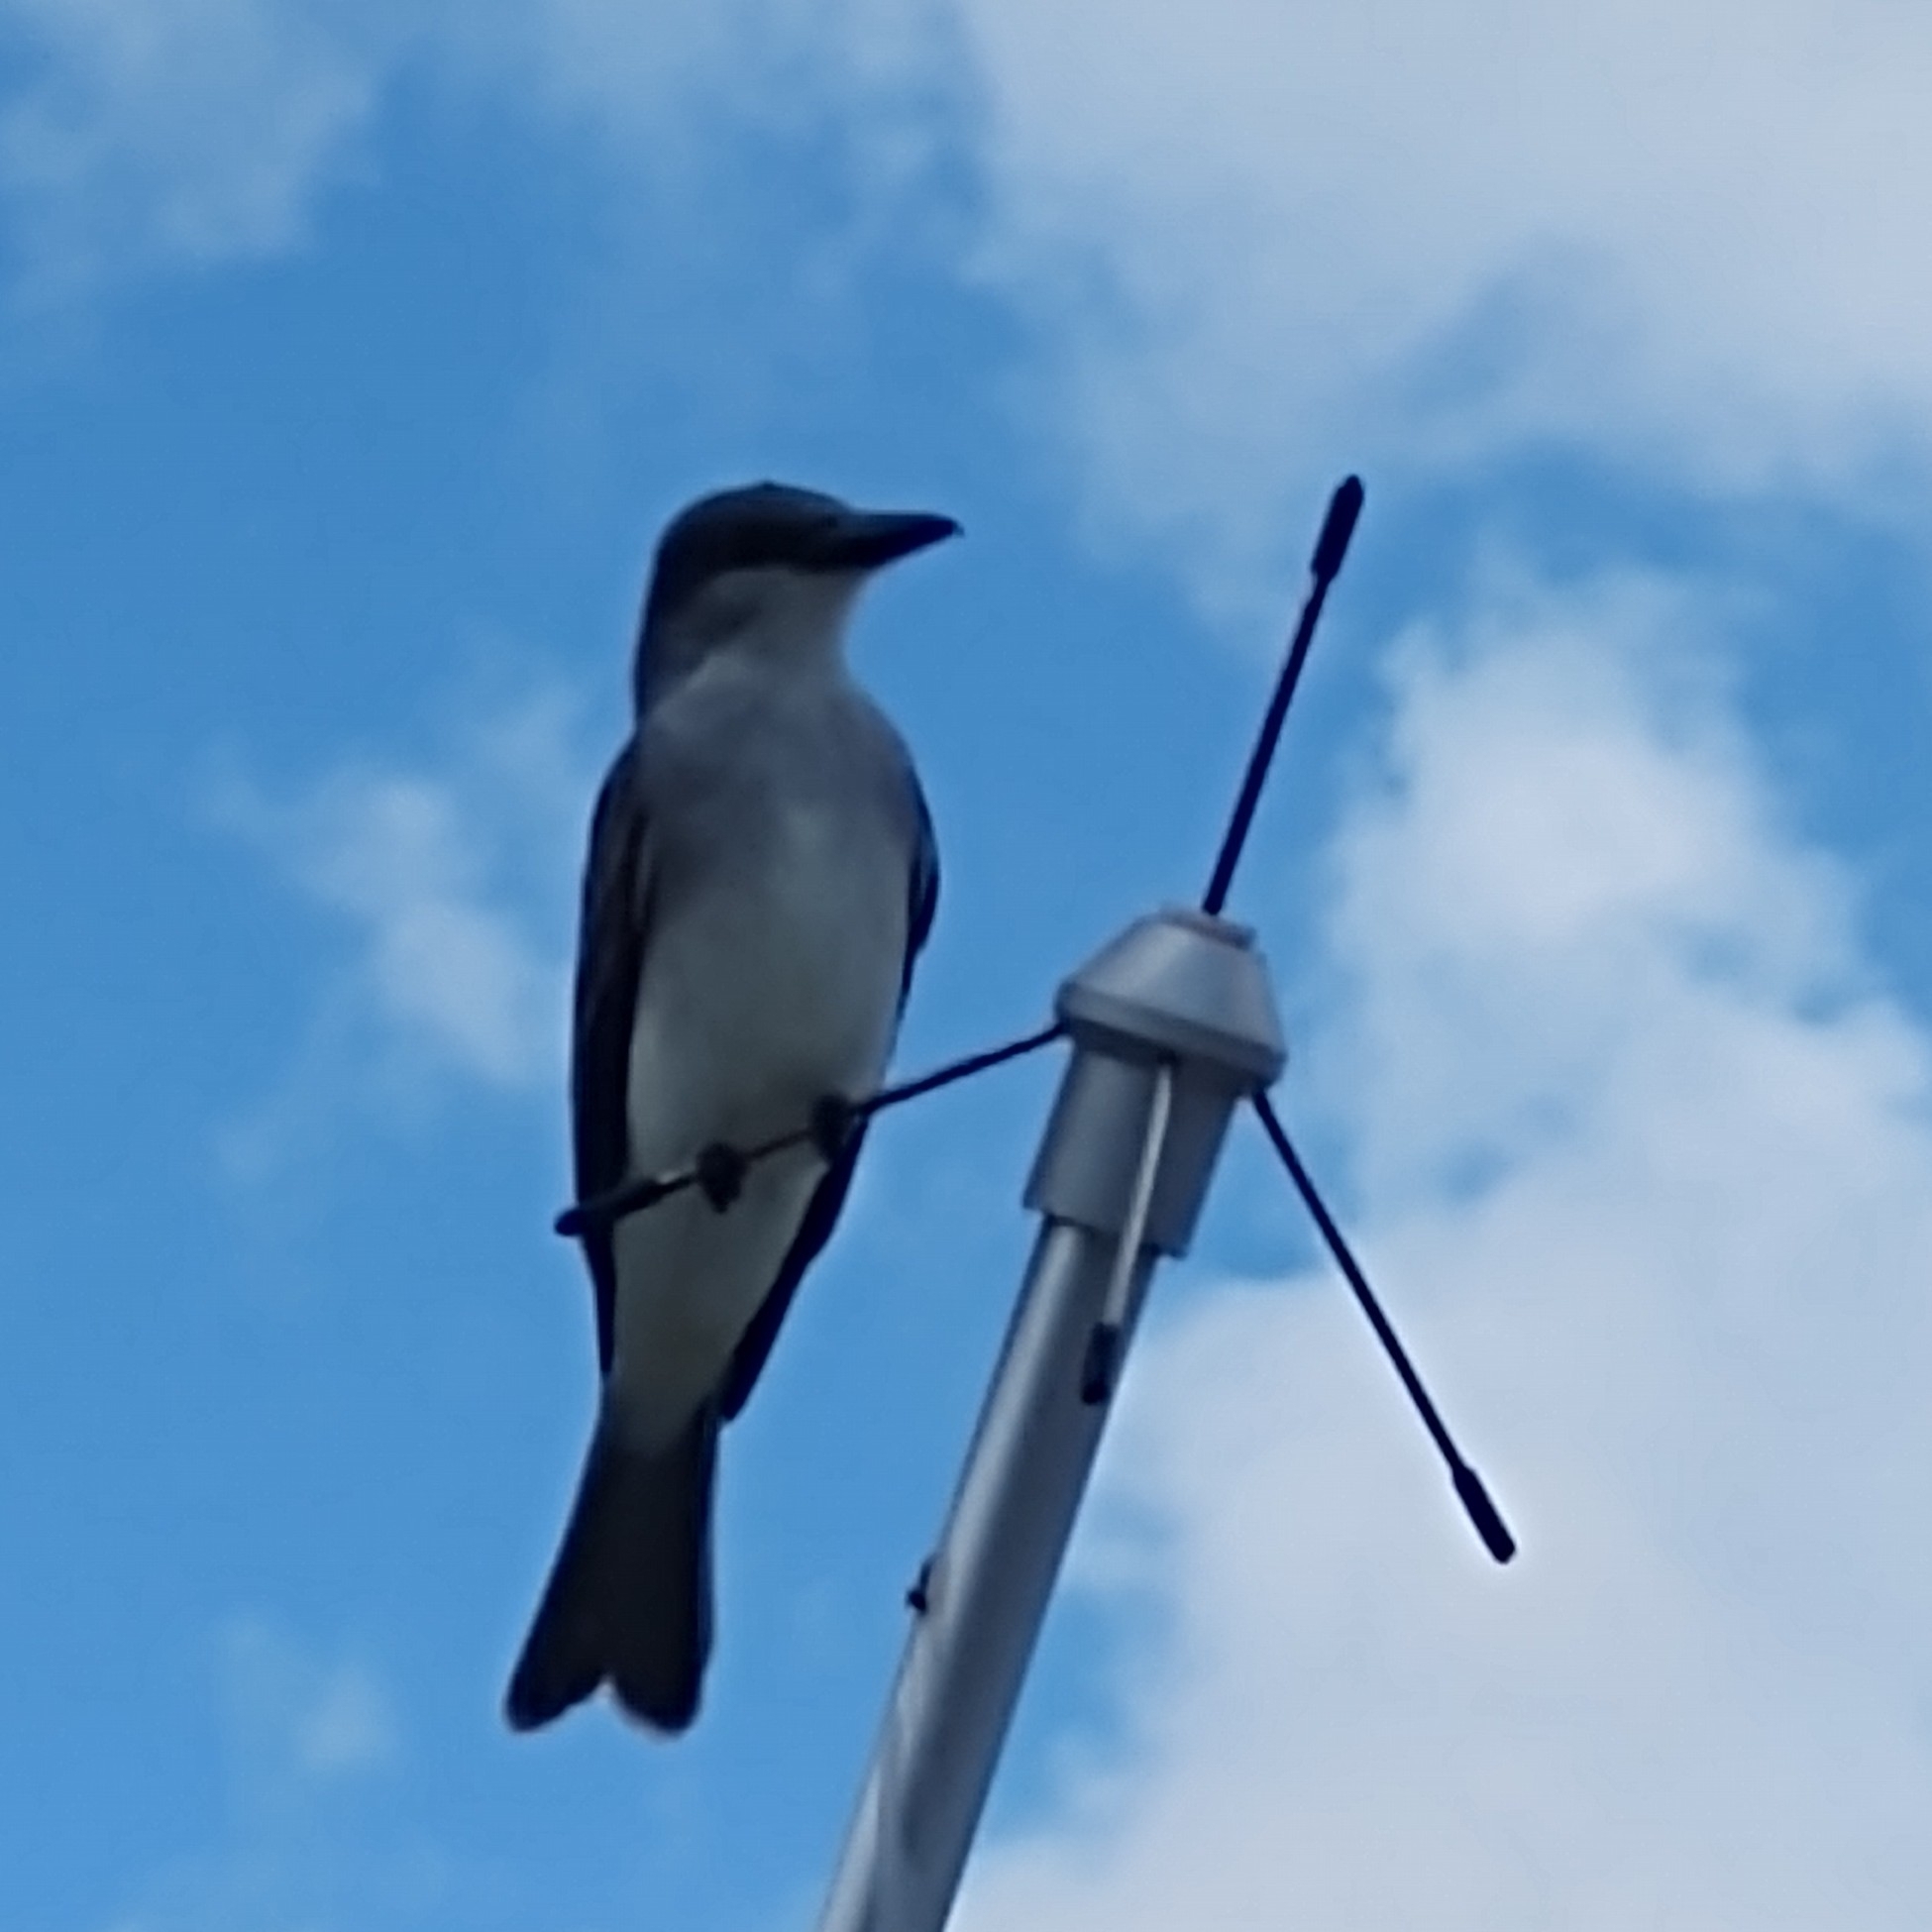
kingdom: Animalia
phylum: Chordata
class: Aves
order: Passeriformes
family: Tyrannidae
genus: Tyrannus
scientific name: Tyrannus dominicensis
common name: Gray kingbird
